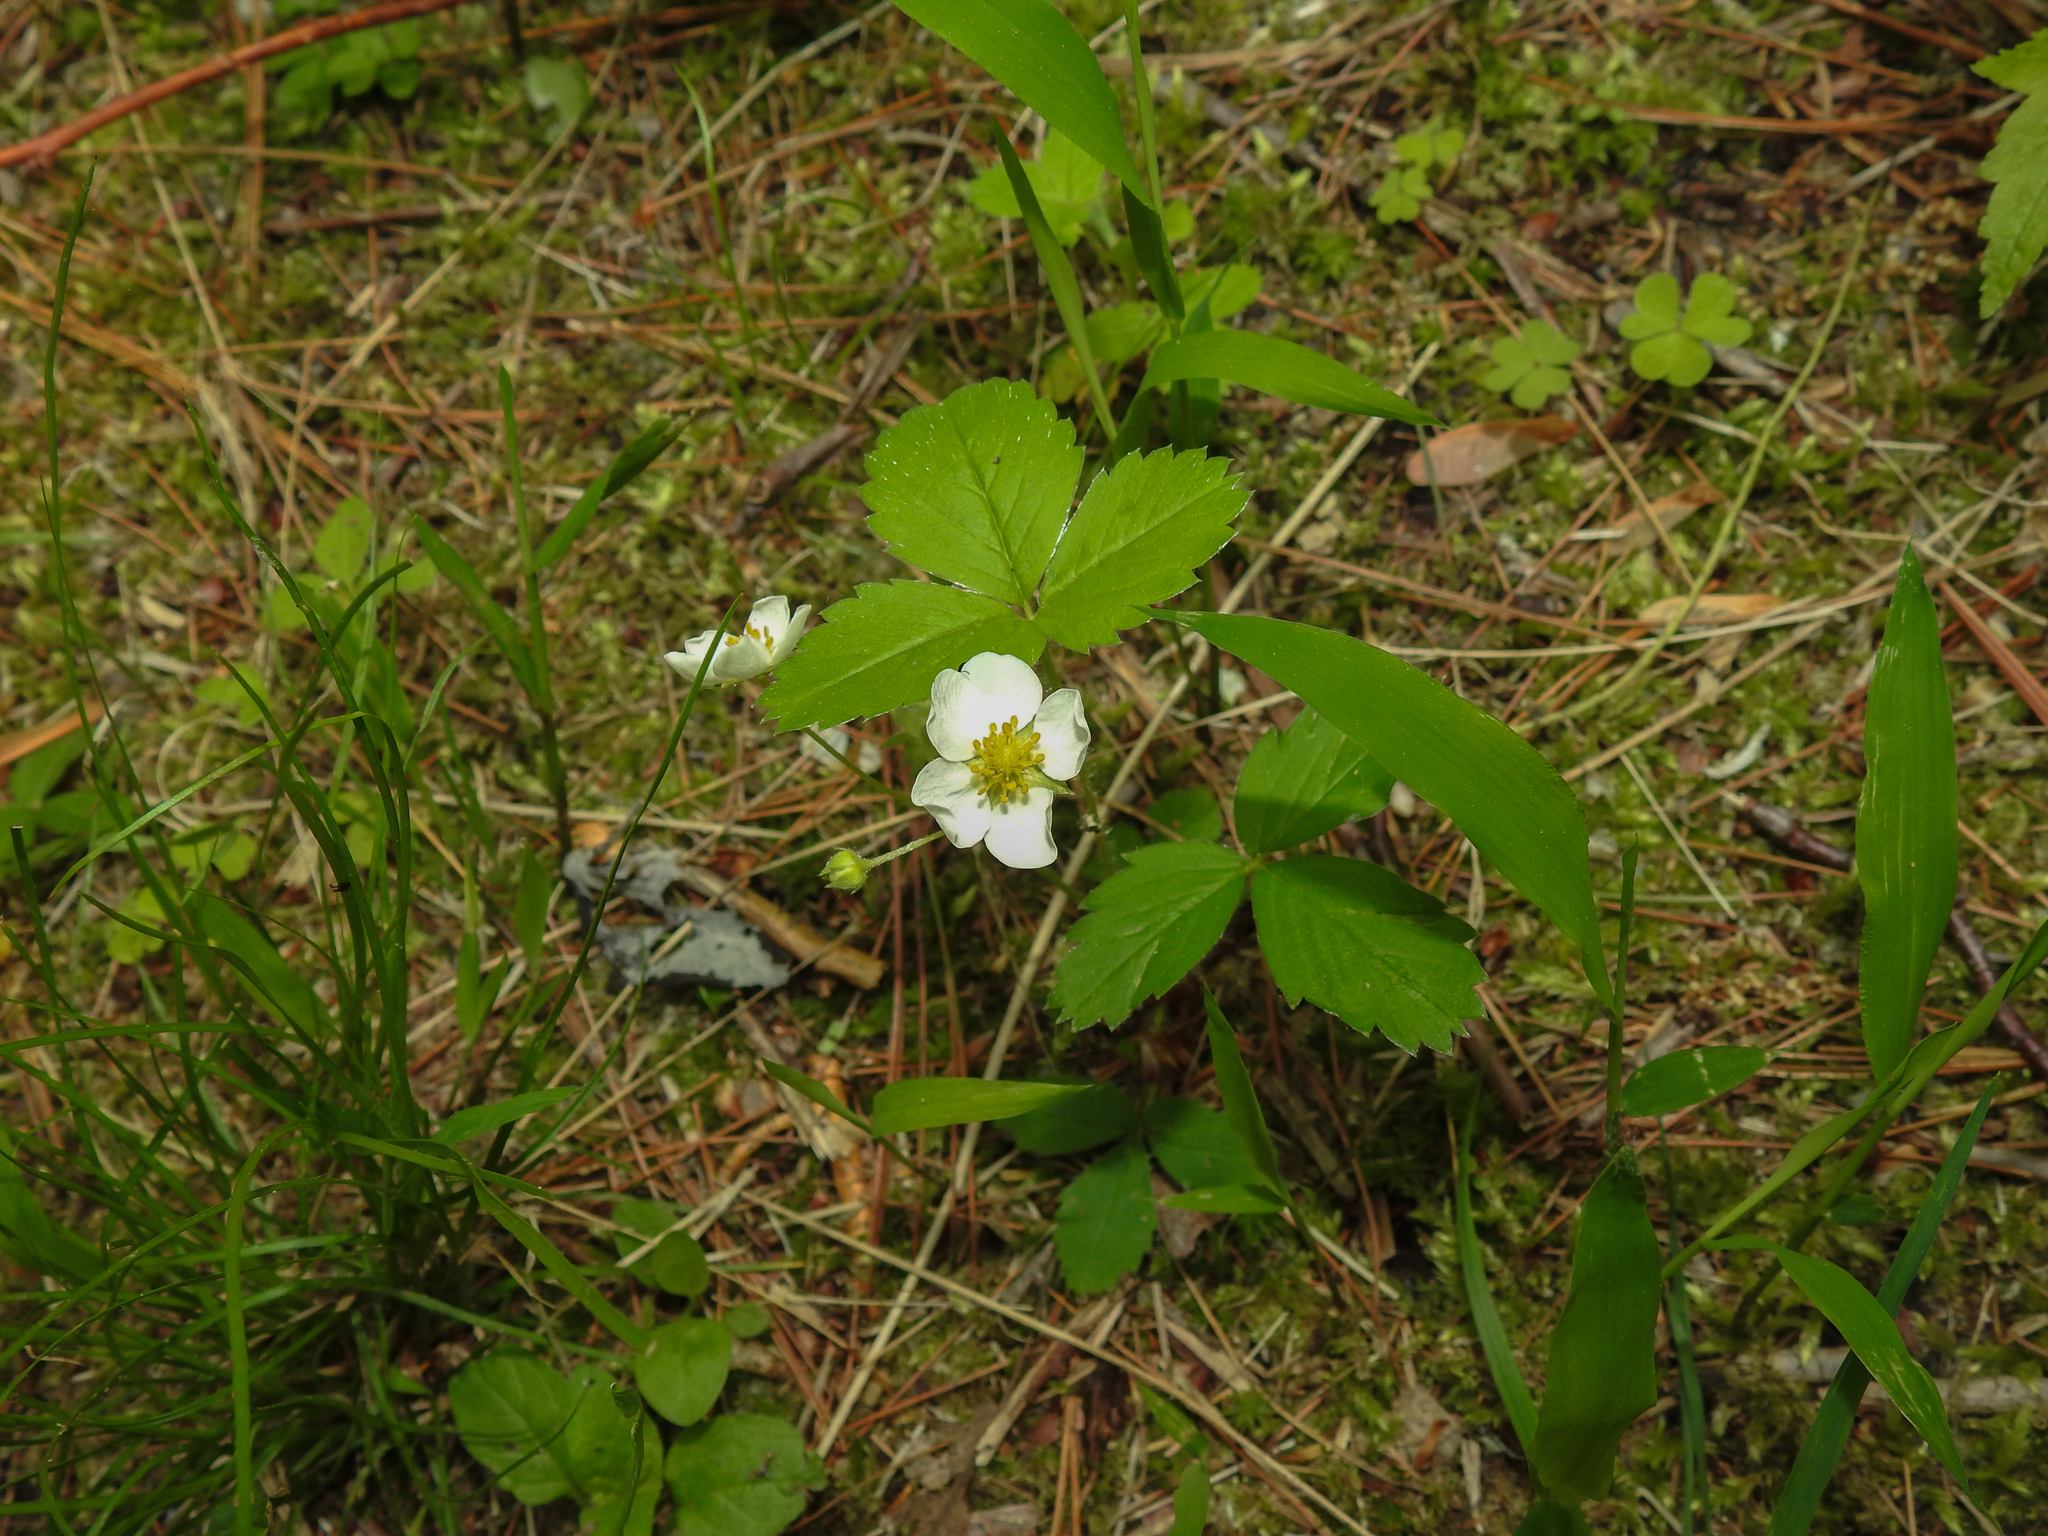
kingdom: Plantae
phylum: Tracheophyta
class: Magnoliopsida
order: Rosales
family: Rosaceae
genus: Fragaria
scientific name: Fragaria virginiana
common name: Thickleaved wild strawberry
